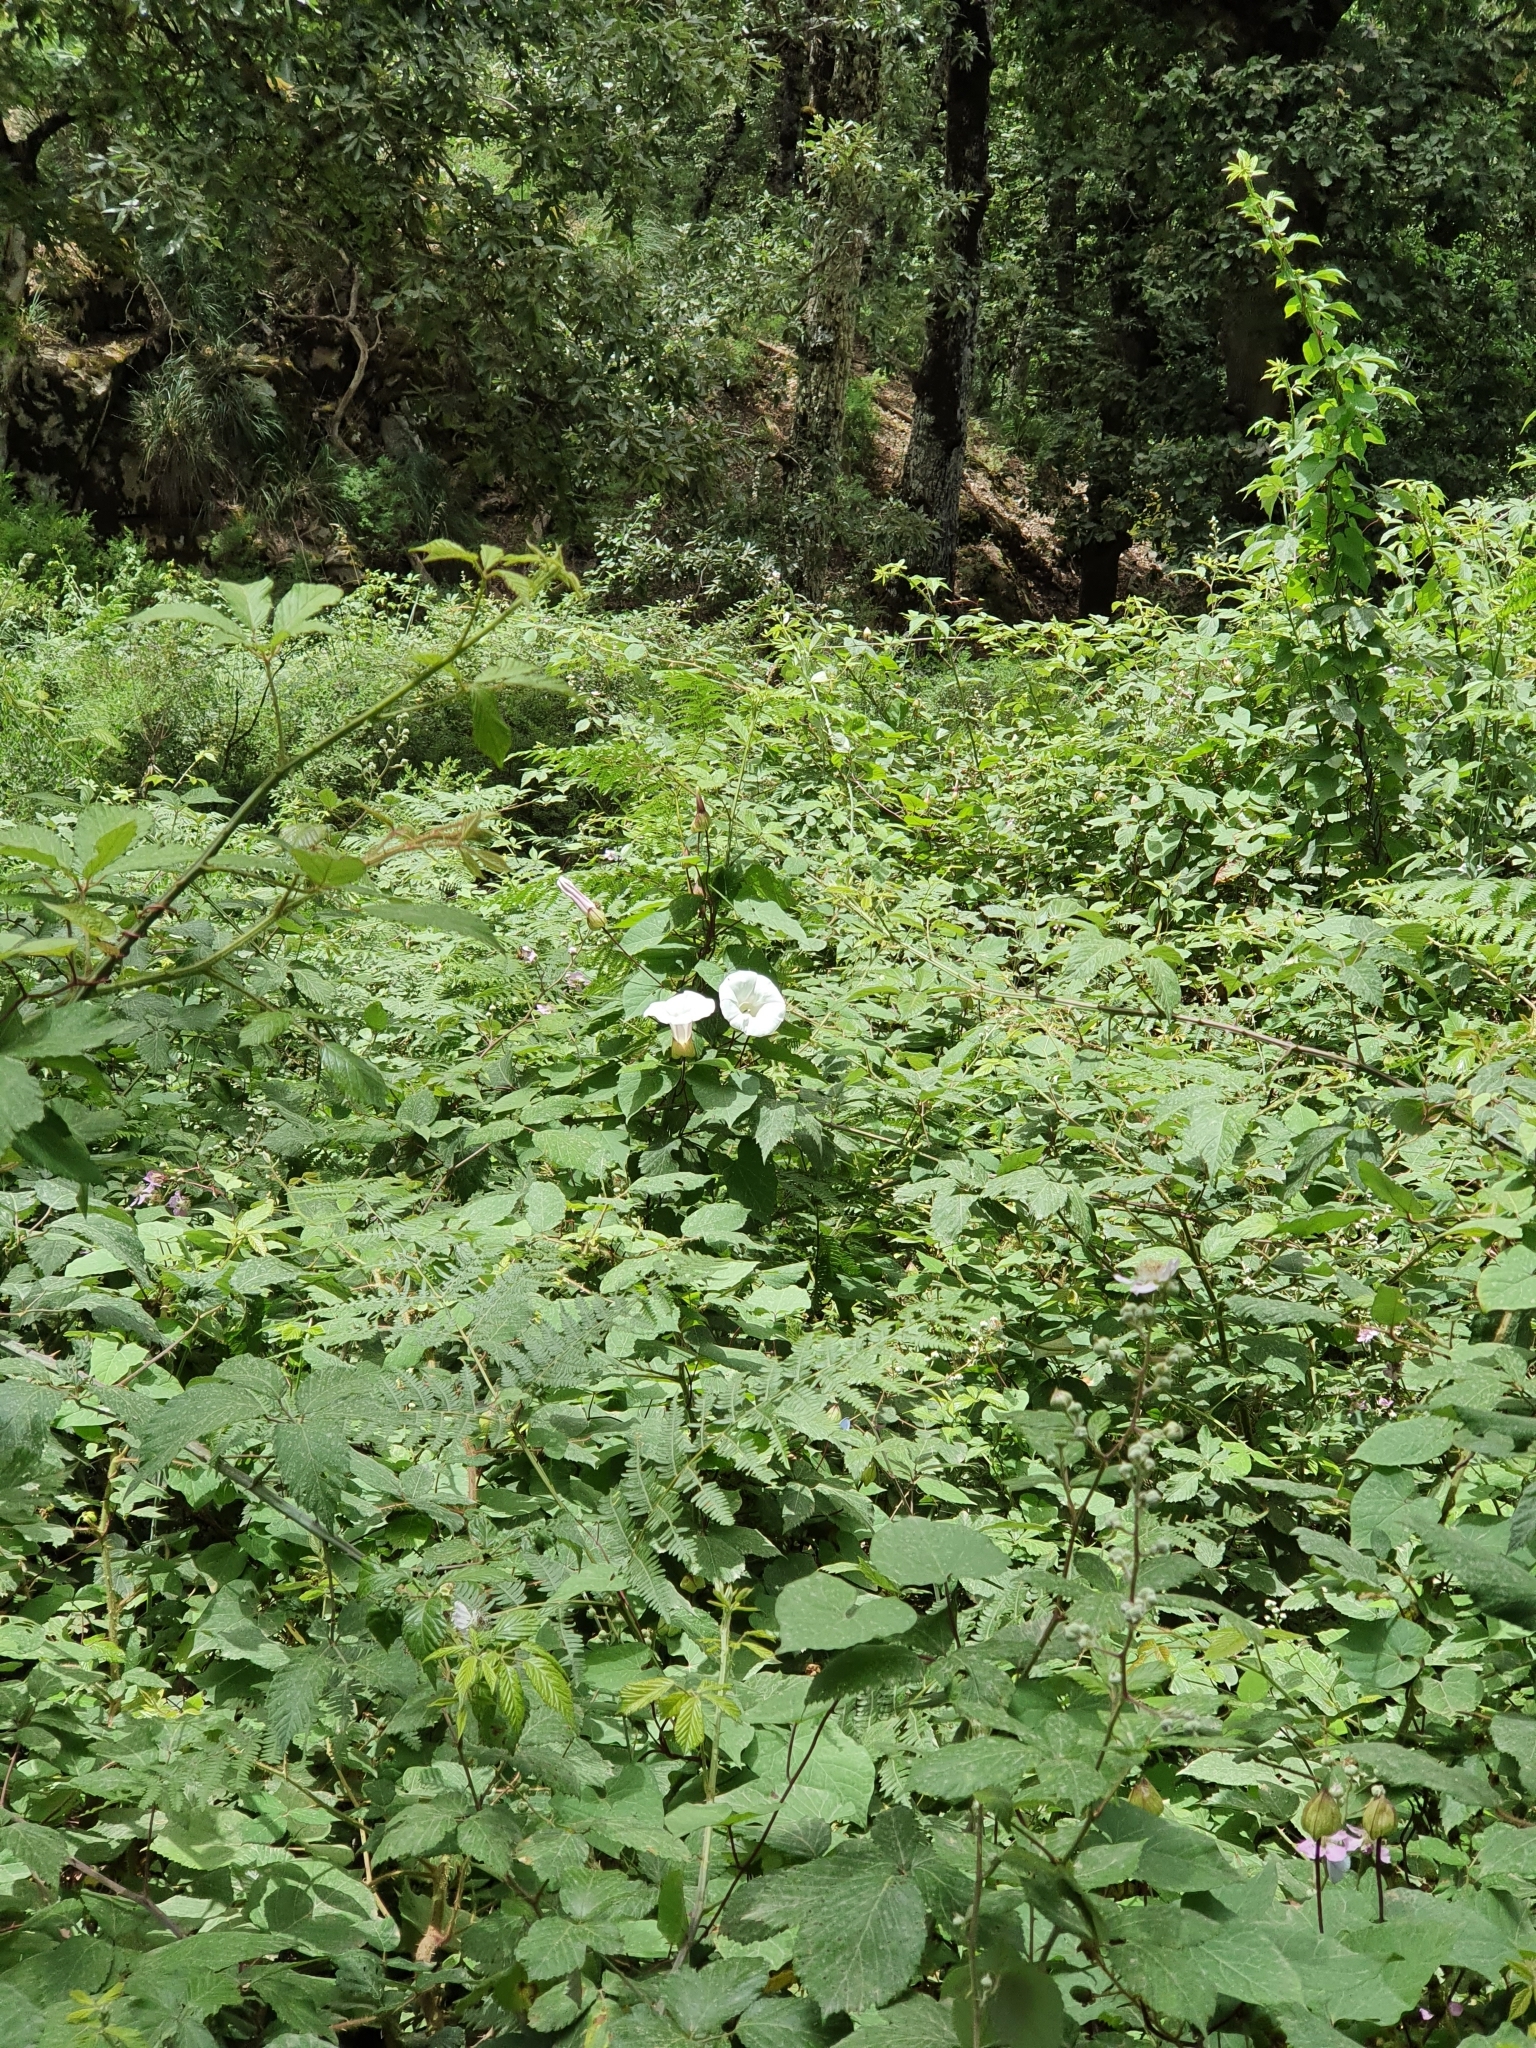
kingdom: Plantae
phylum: Tracheophyta
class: Magnoliopsida
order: Solanales
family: Convolvulaceae
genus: Calystegia
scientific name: Calystegia silvatica
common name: Large bindweed
